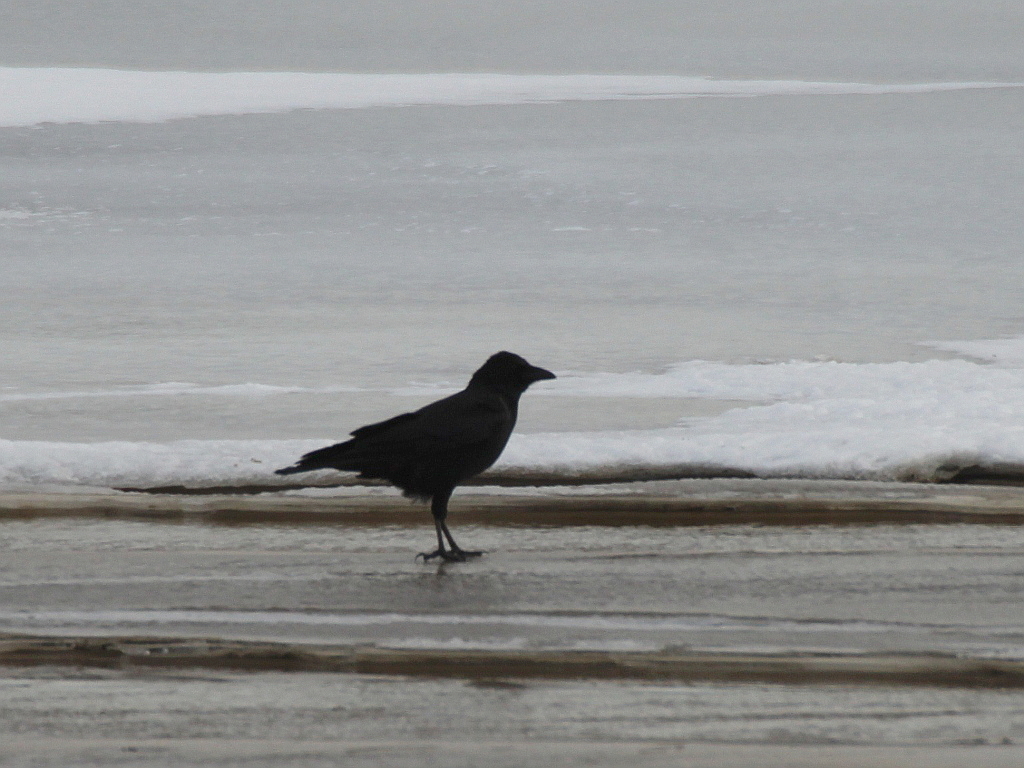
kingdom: Animalia
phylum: Chordata
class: Aves
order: Passeriformes
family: Corvidae
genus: Corvus
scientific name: Corvus corone
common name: Carrion crow
